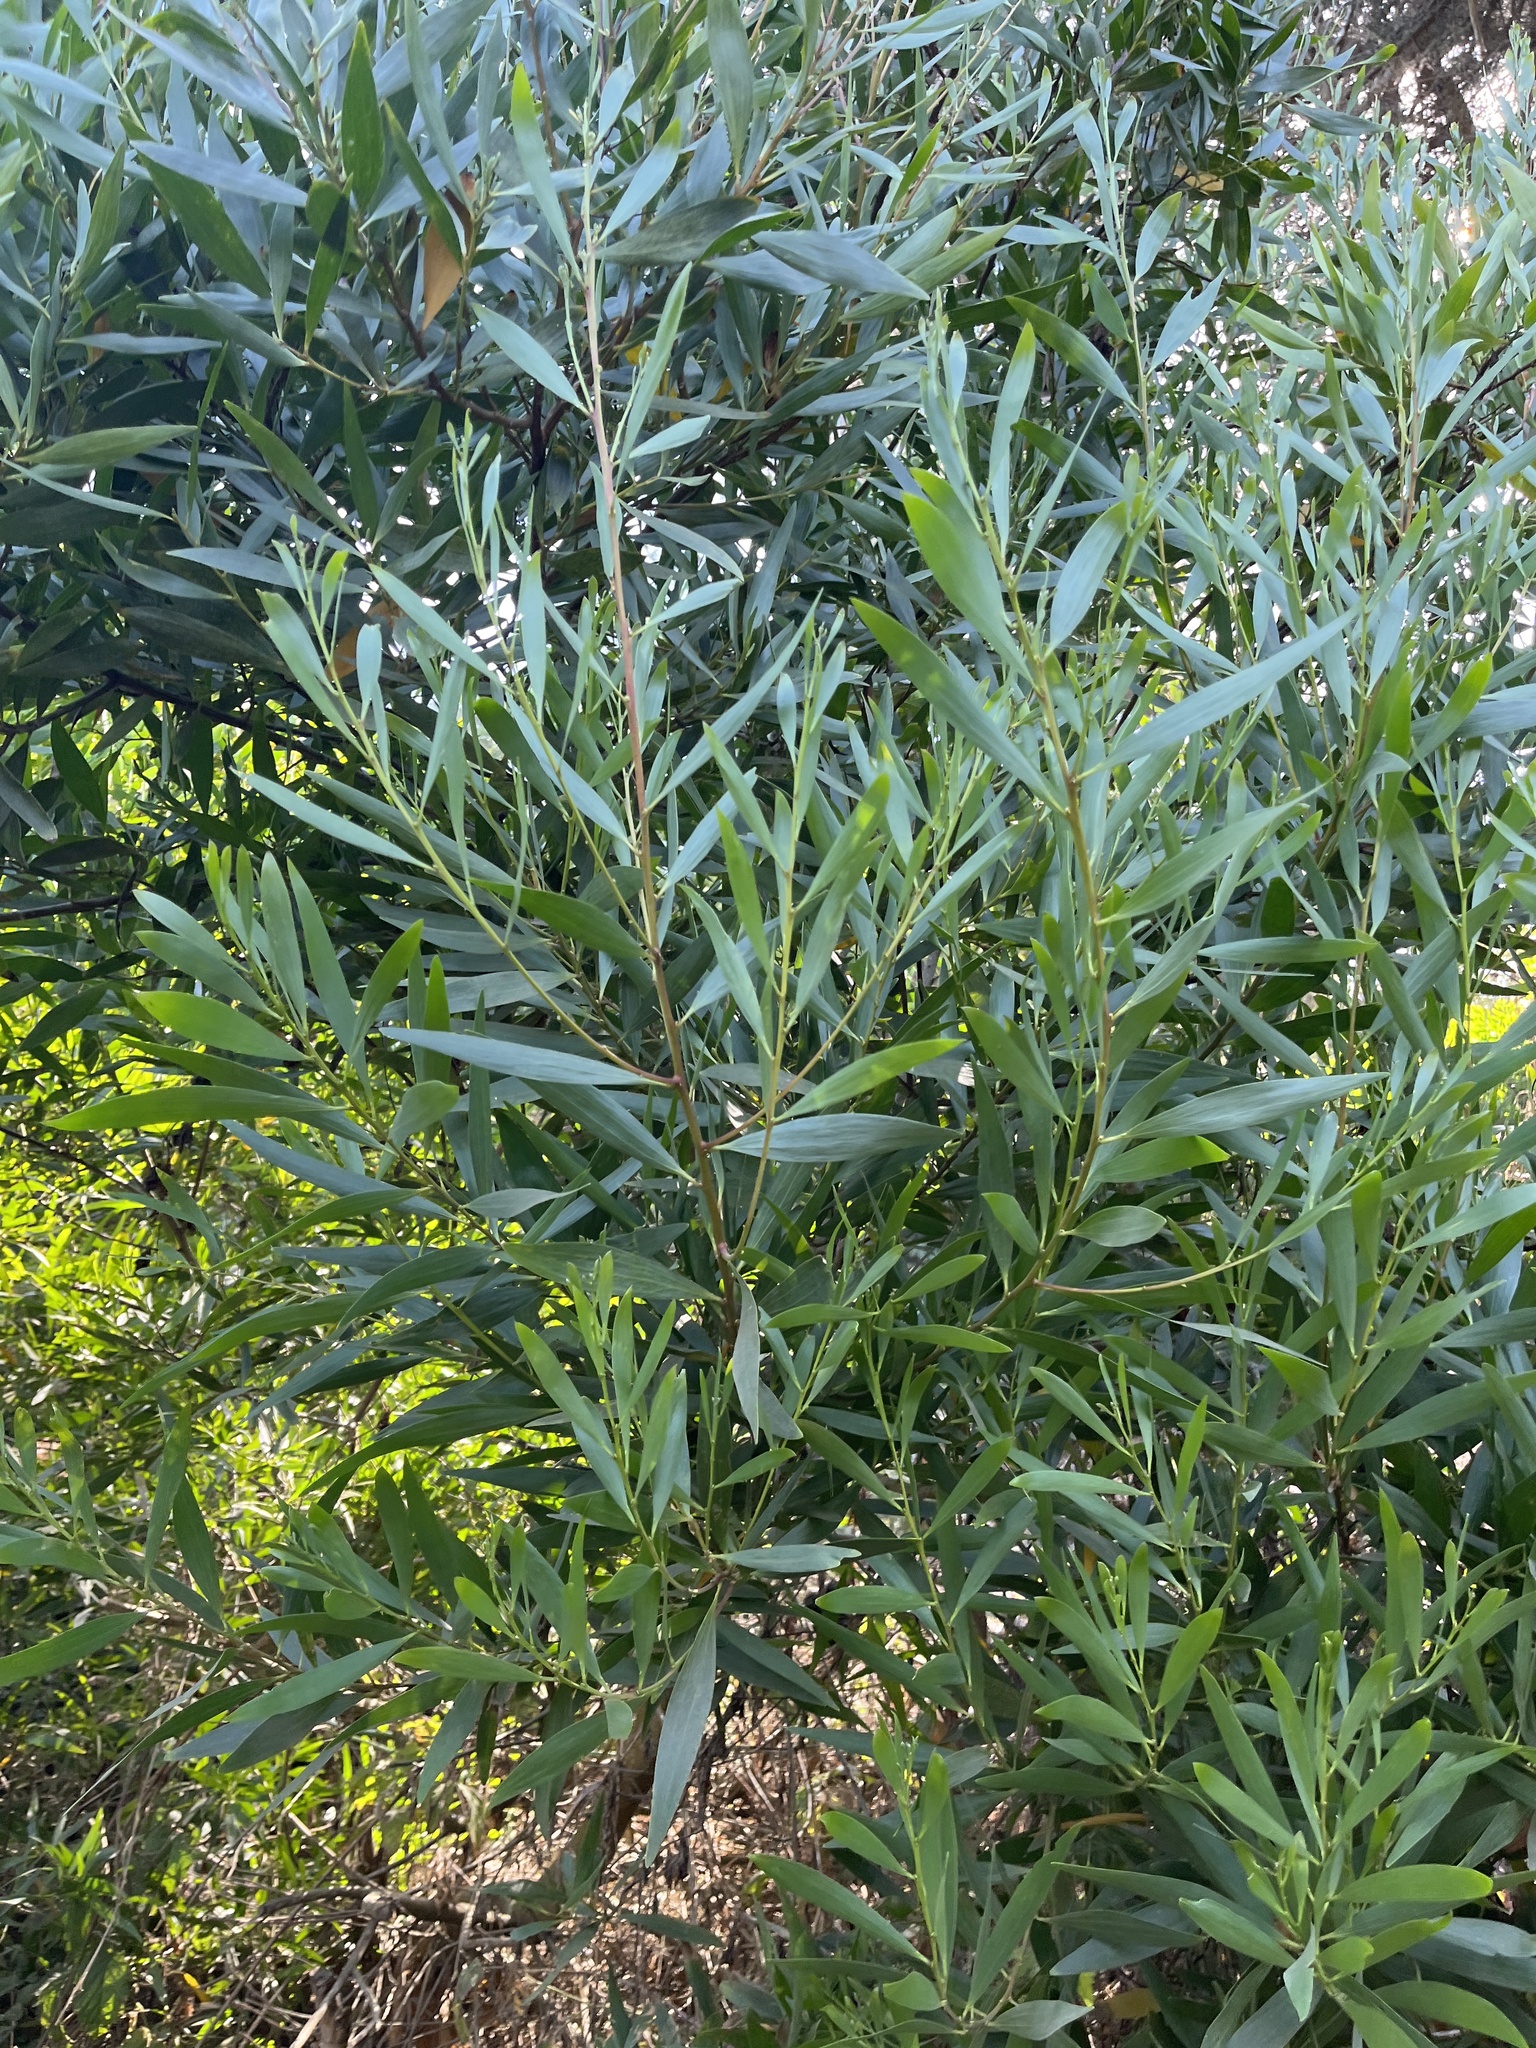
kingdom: Plantae
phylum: Tracheophyta
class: Magnoliopsida
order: Fabales
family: Fabaceae
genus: Acacia
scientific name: Acacia longifolia
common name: Sydney golden wattle
